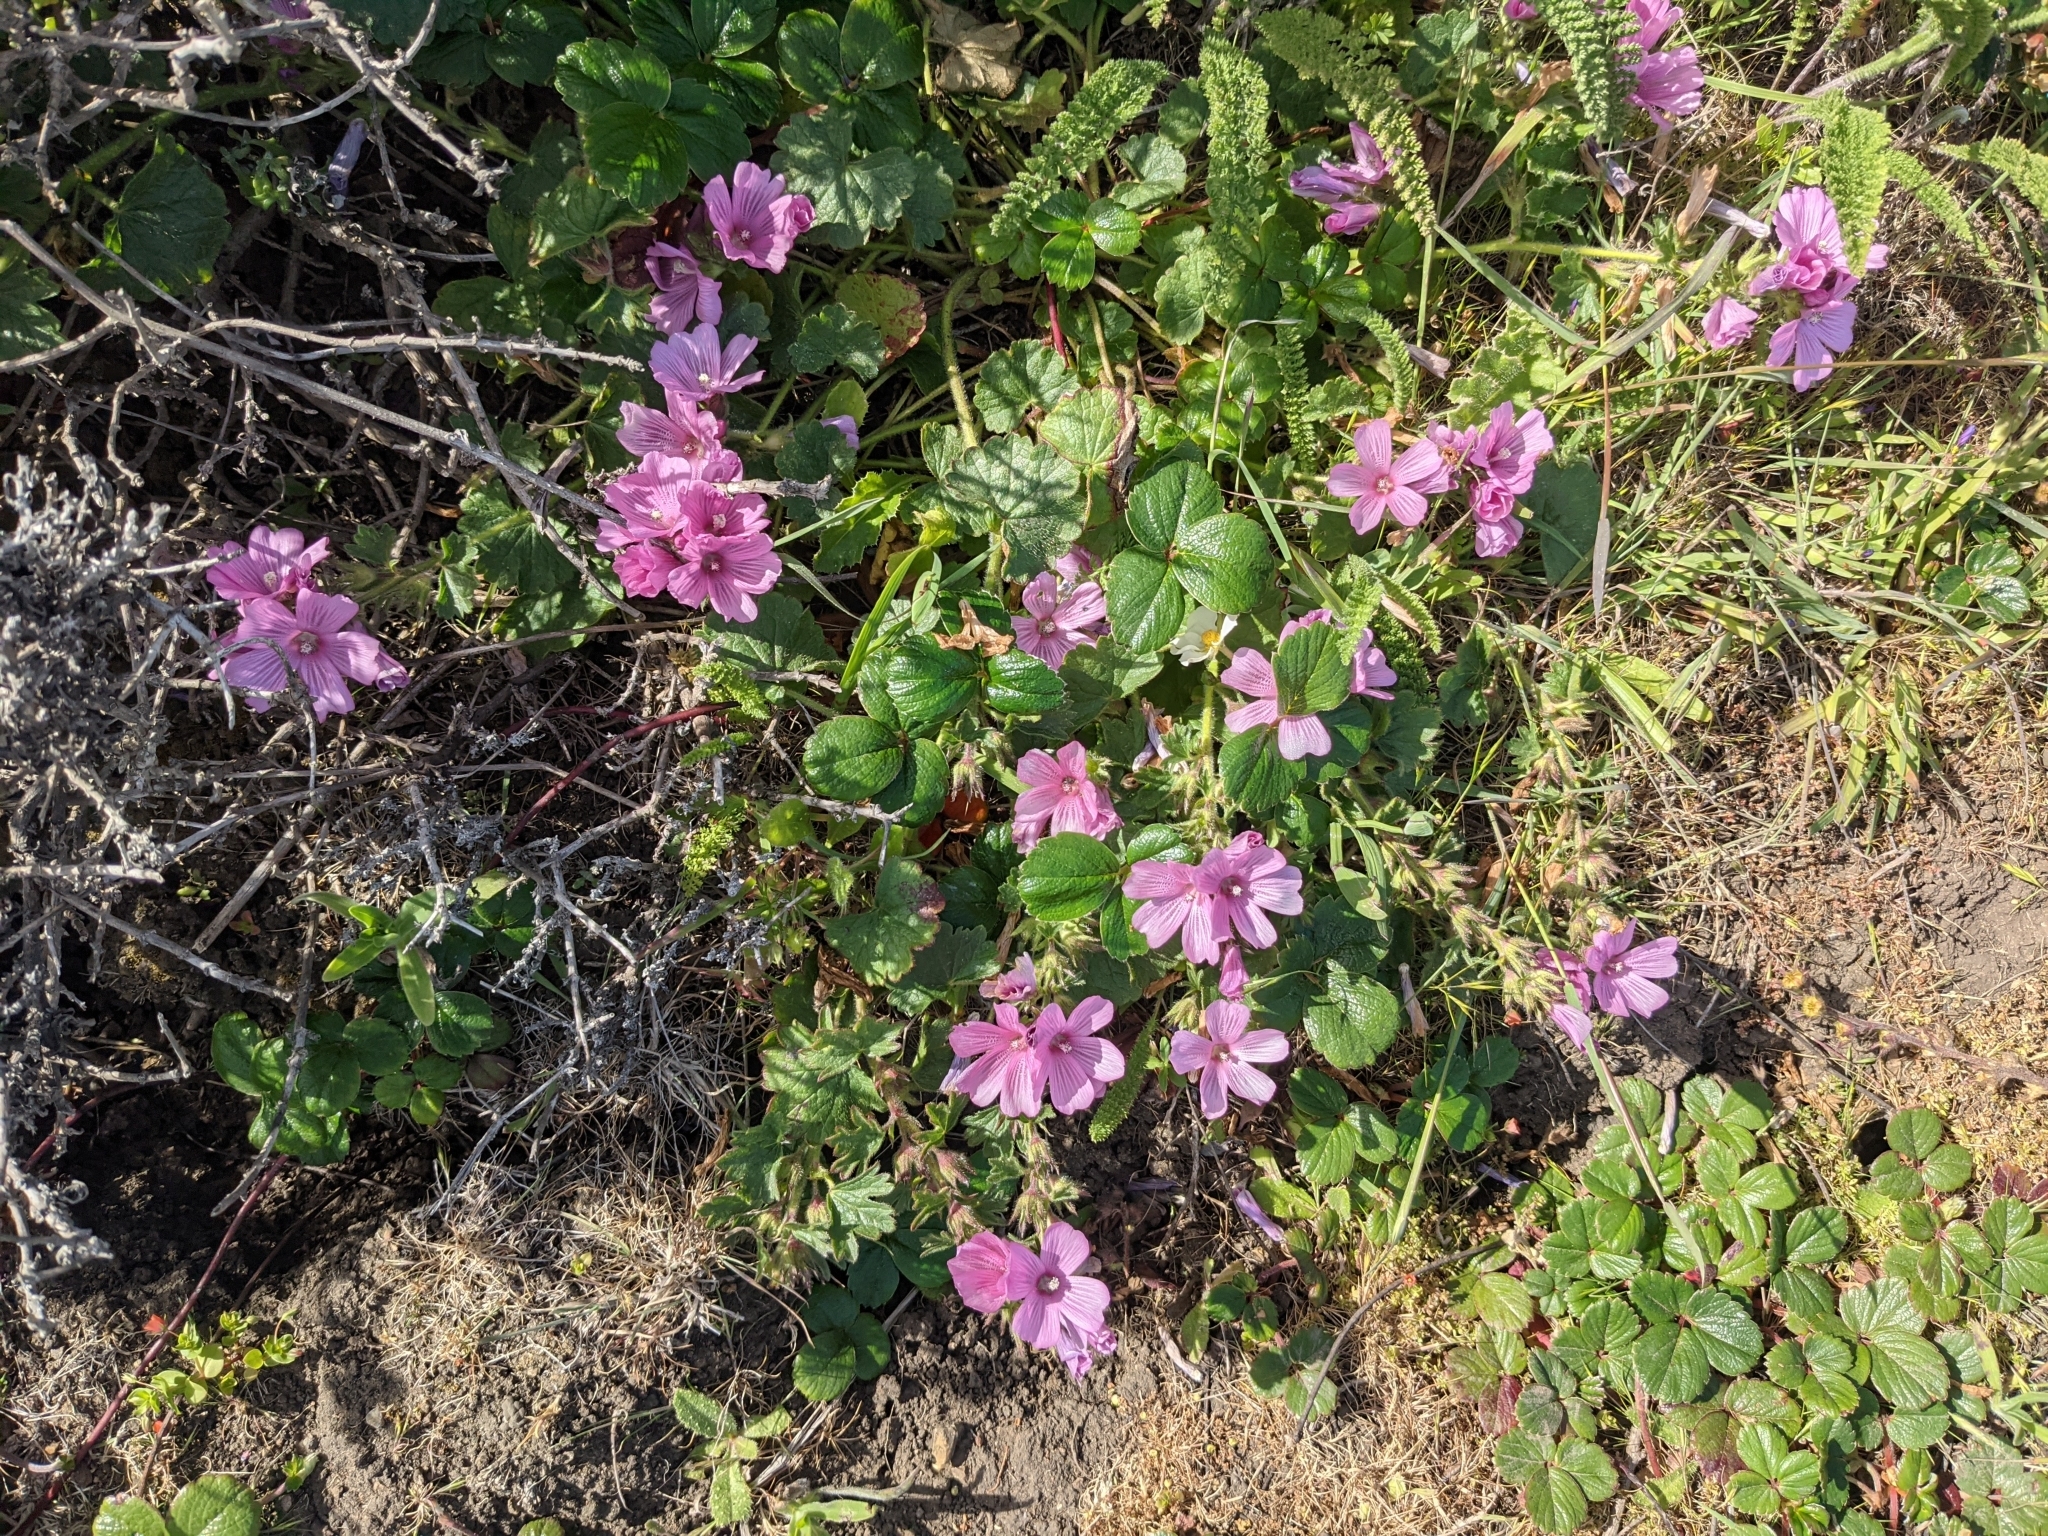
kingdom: Plantae
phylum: Tracheophyta
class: Magnoliopsida
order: Malvales
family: Malvaceae
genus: Sidalcea
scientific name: Sidalcea malviflora
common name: Greek mallow
